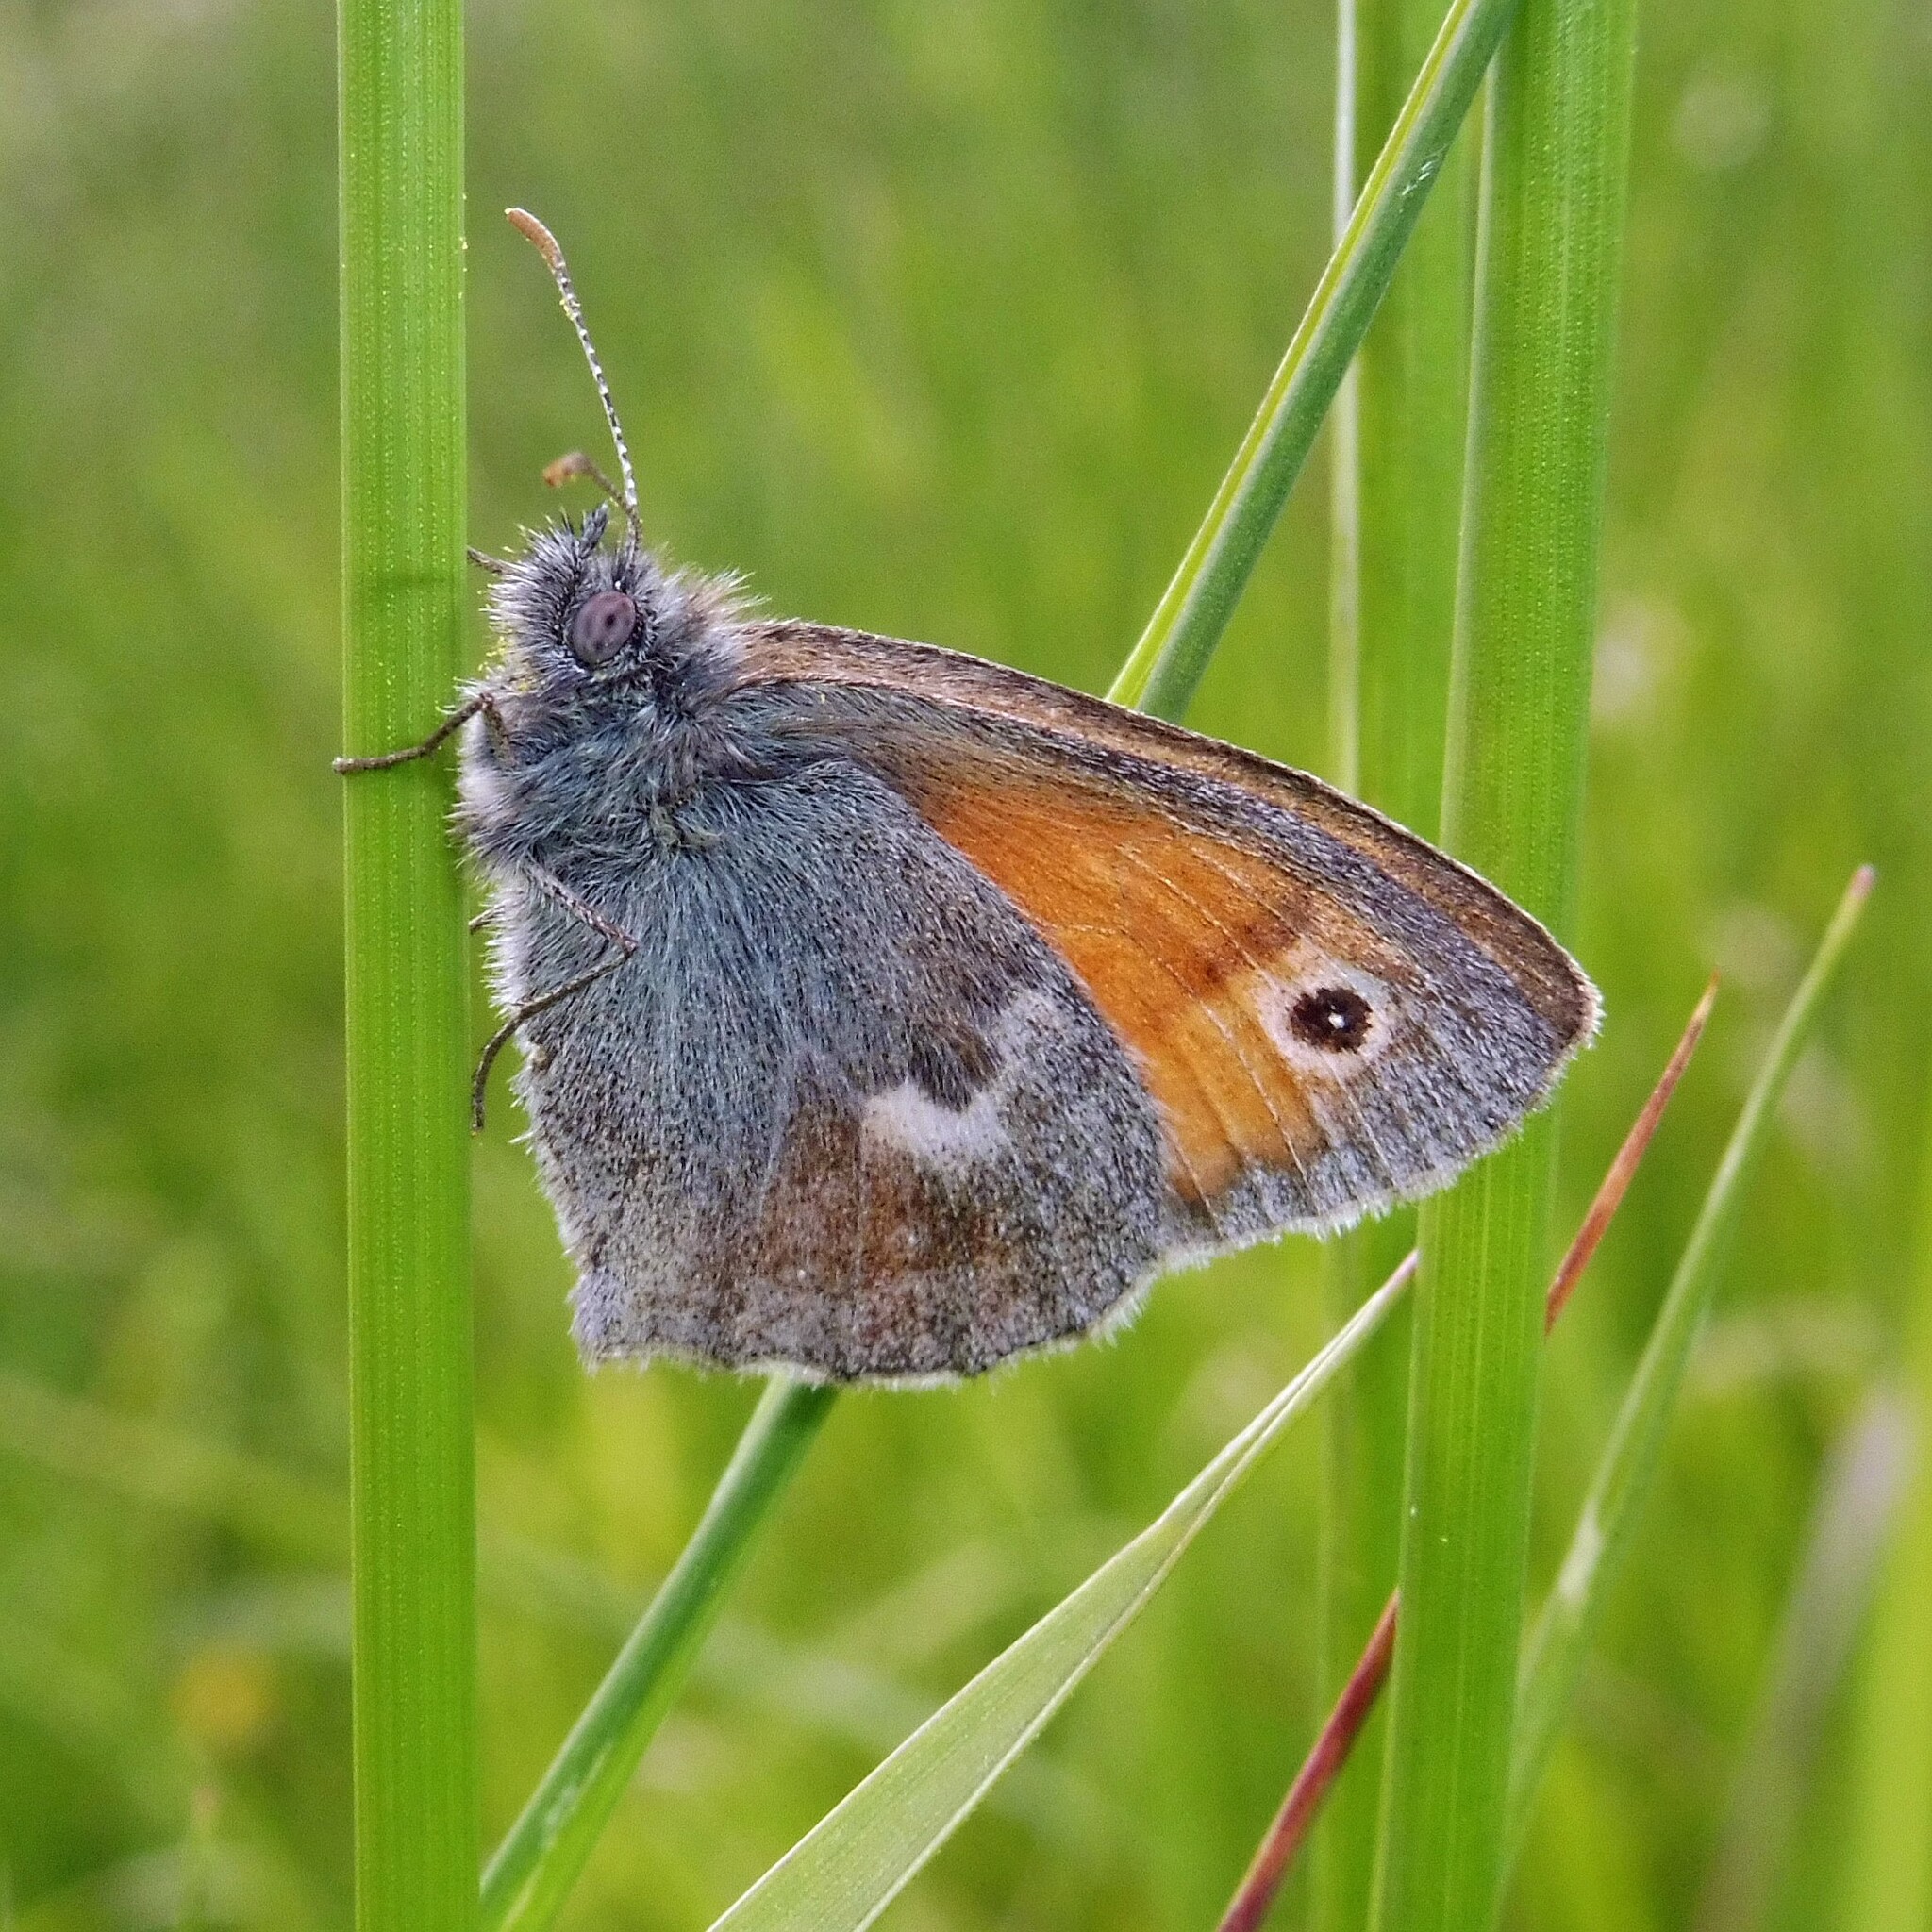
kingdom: Animalia
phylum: Arthropoda
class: Insecta
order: Lepidoptera
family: Nymphalidae
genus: Coenonympha
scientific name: Coenonympha pamphilus
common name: Small heath
